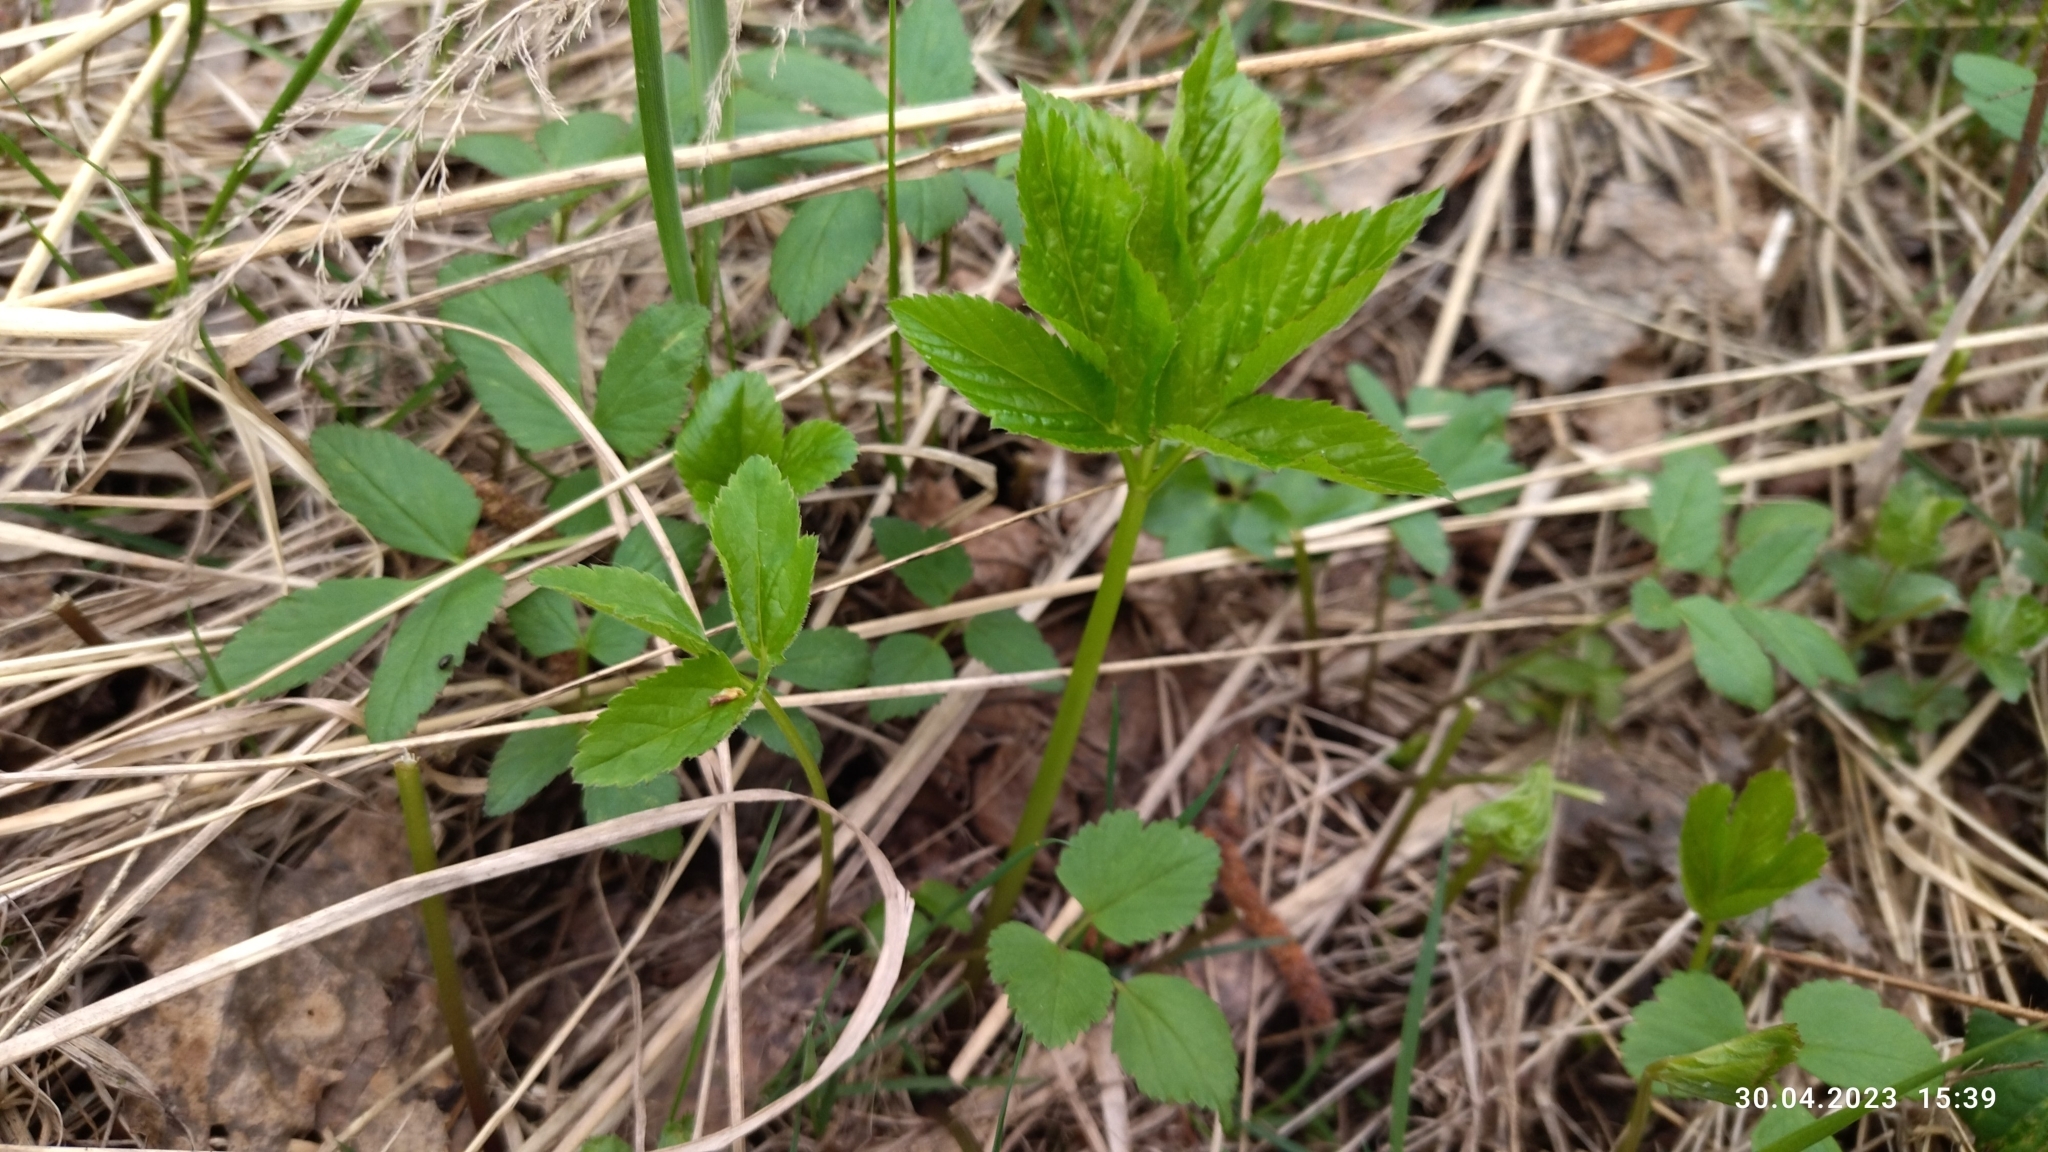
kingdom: Plantae
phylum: Tracheophyta
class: Magnoliopsida
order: Apiales
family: Apiaceae
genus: Aegopodium
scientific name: Aegopodium podagraria
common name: Ground-elder
